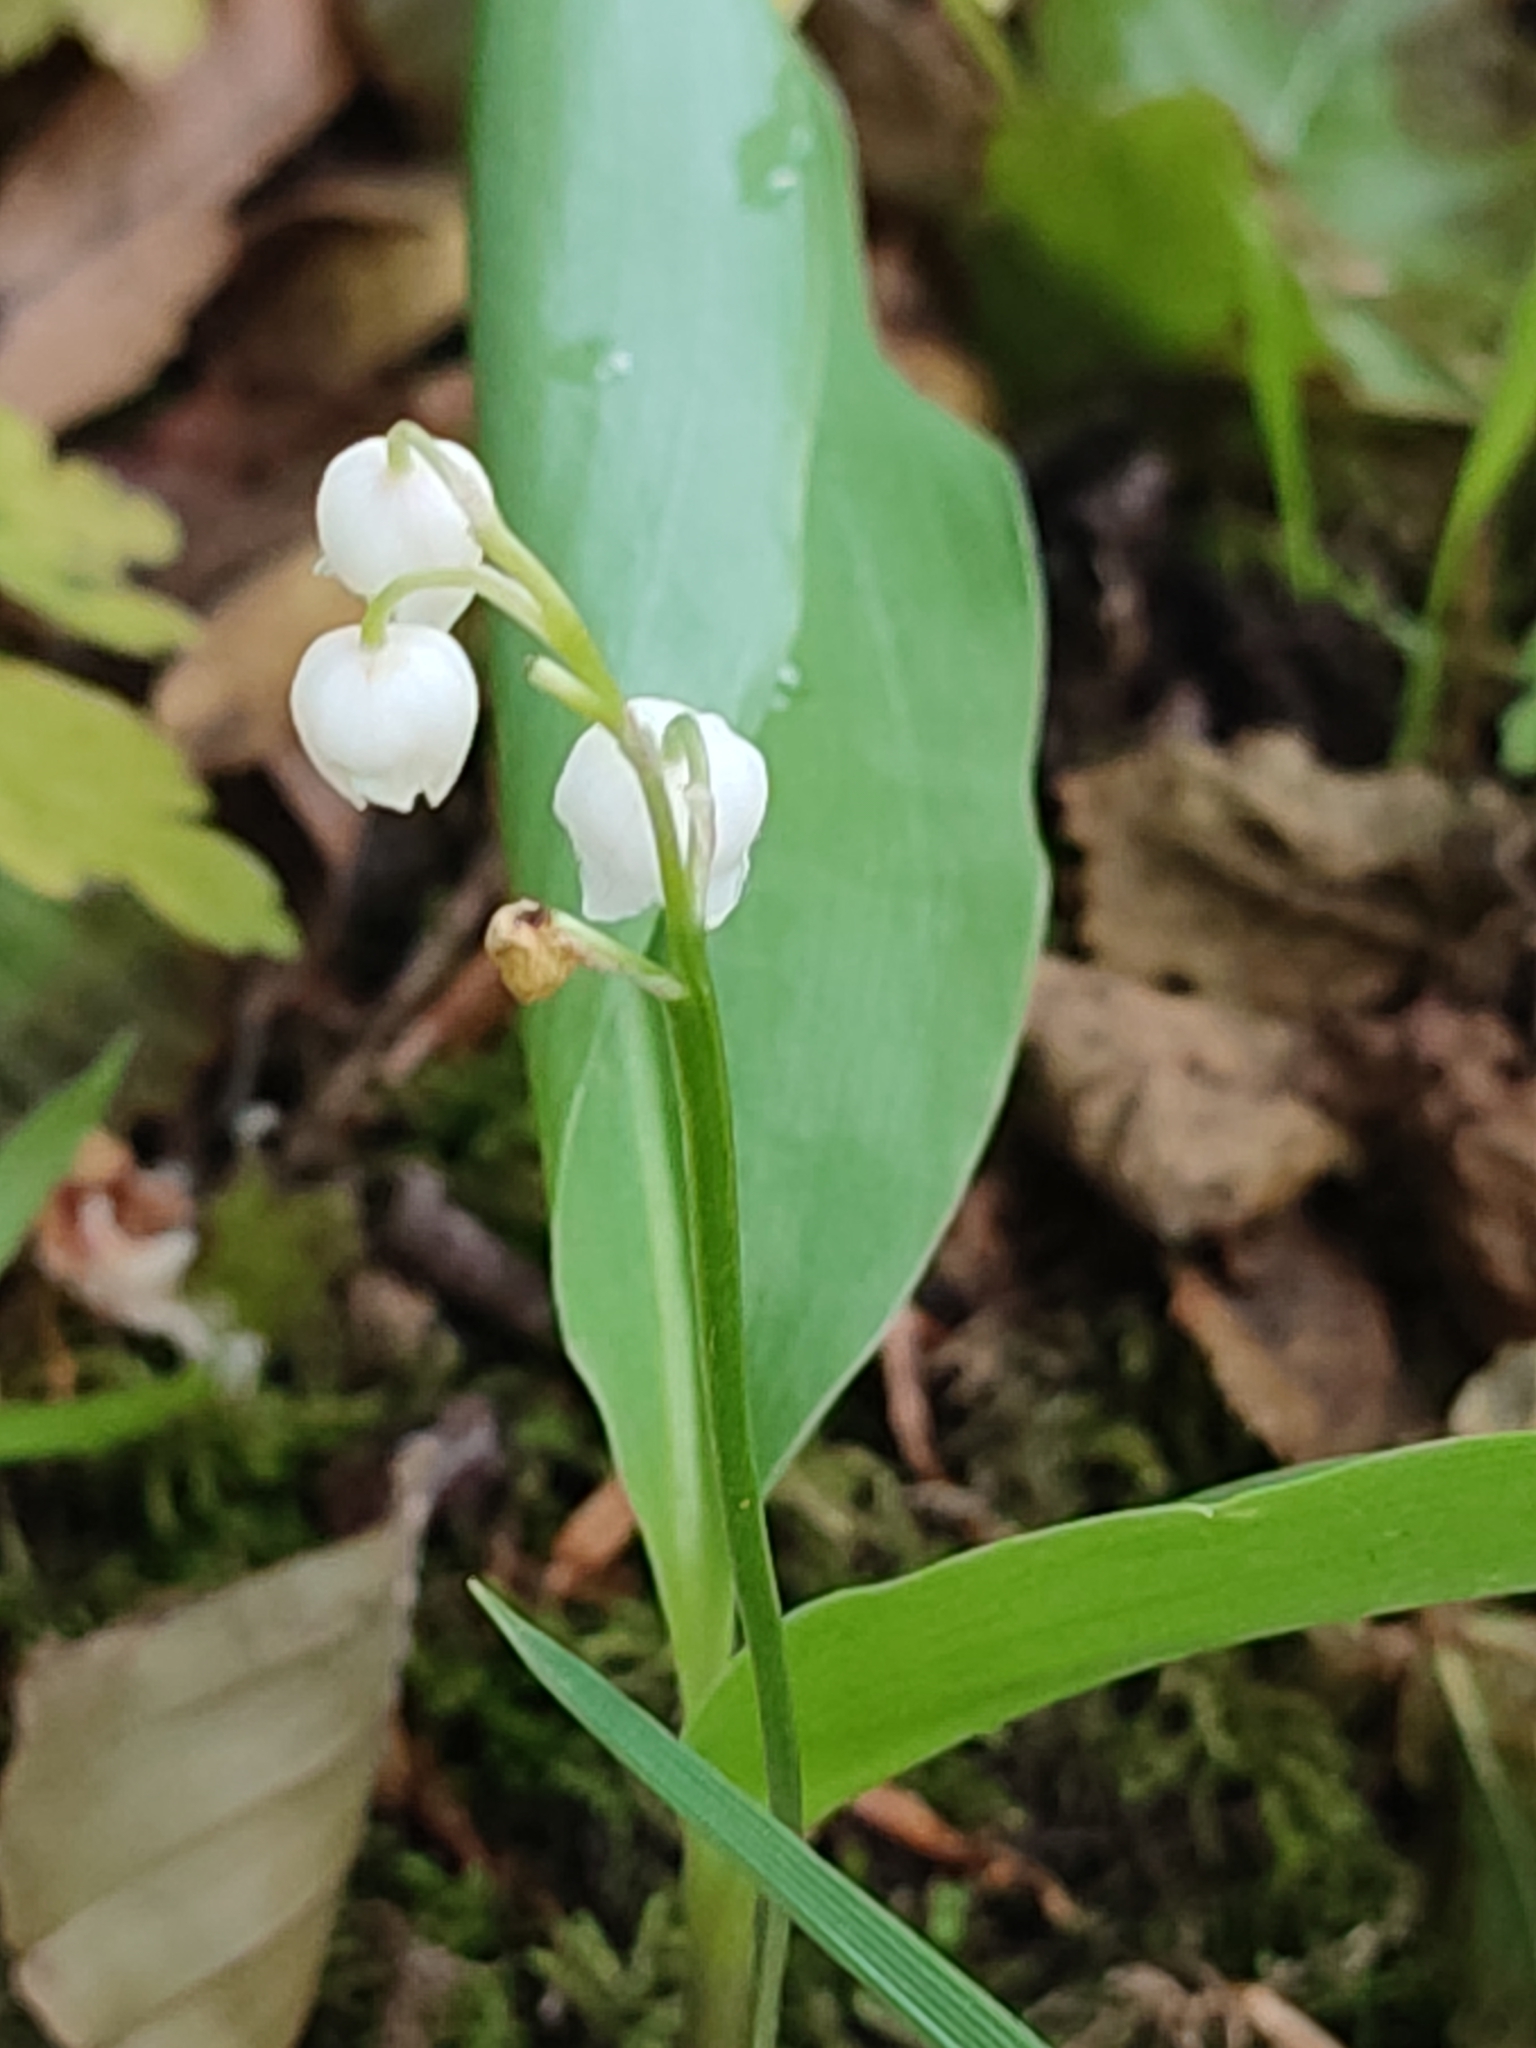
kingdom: Plantae
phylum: Tracheophyta
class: Liliopsida
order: Asparagales
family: Asparagaceae
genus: Convallaria
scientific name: Convallaria majalis
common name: Lily-of-the-valley
